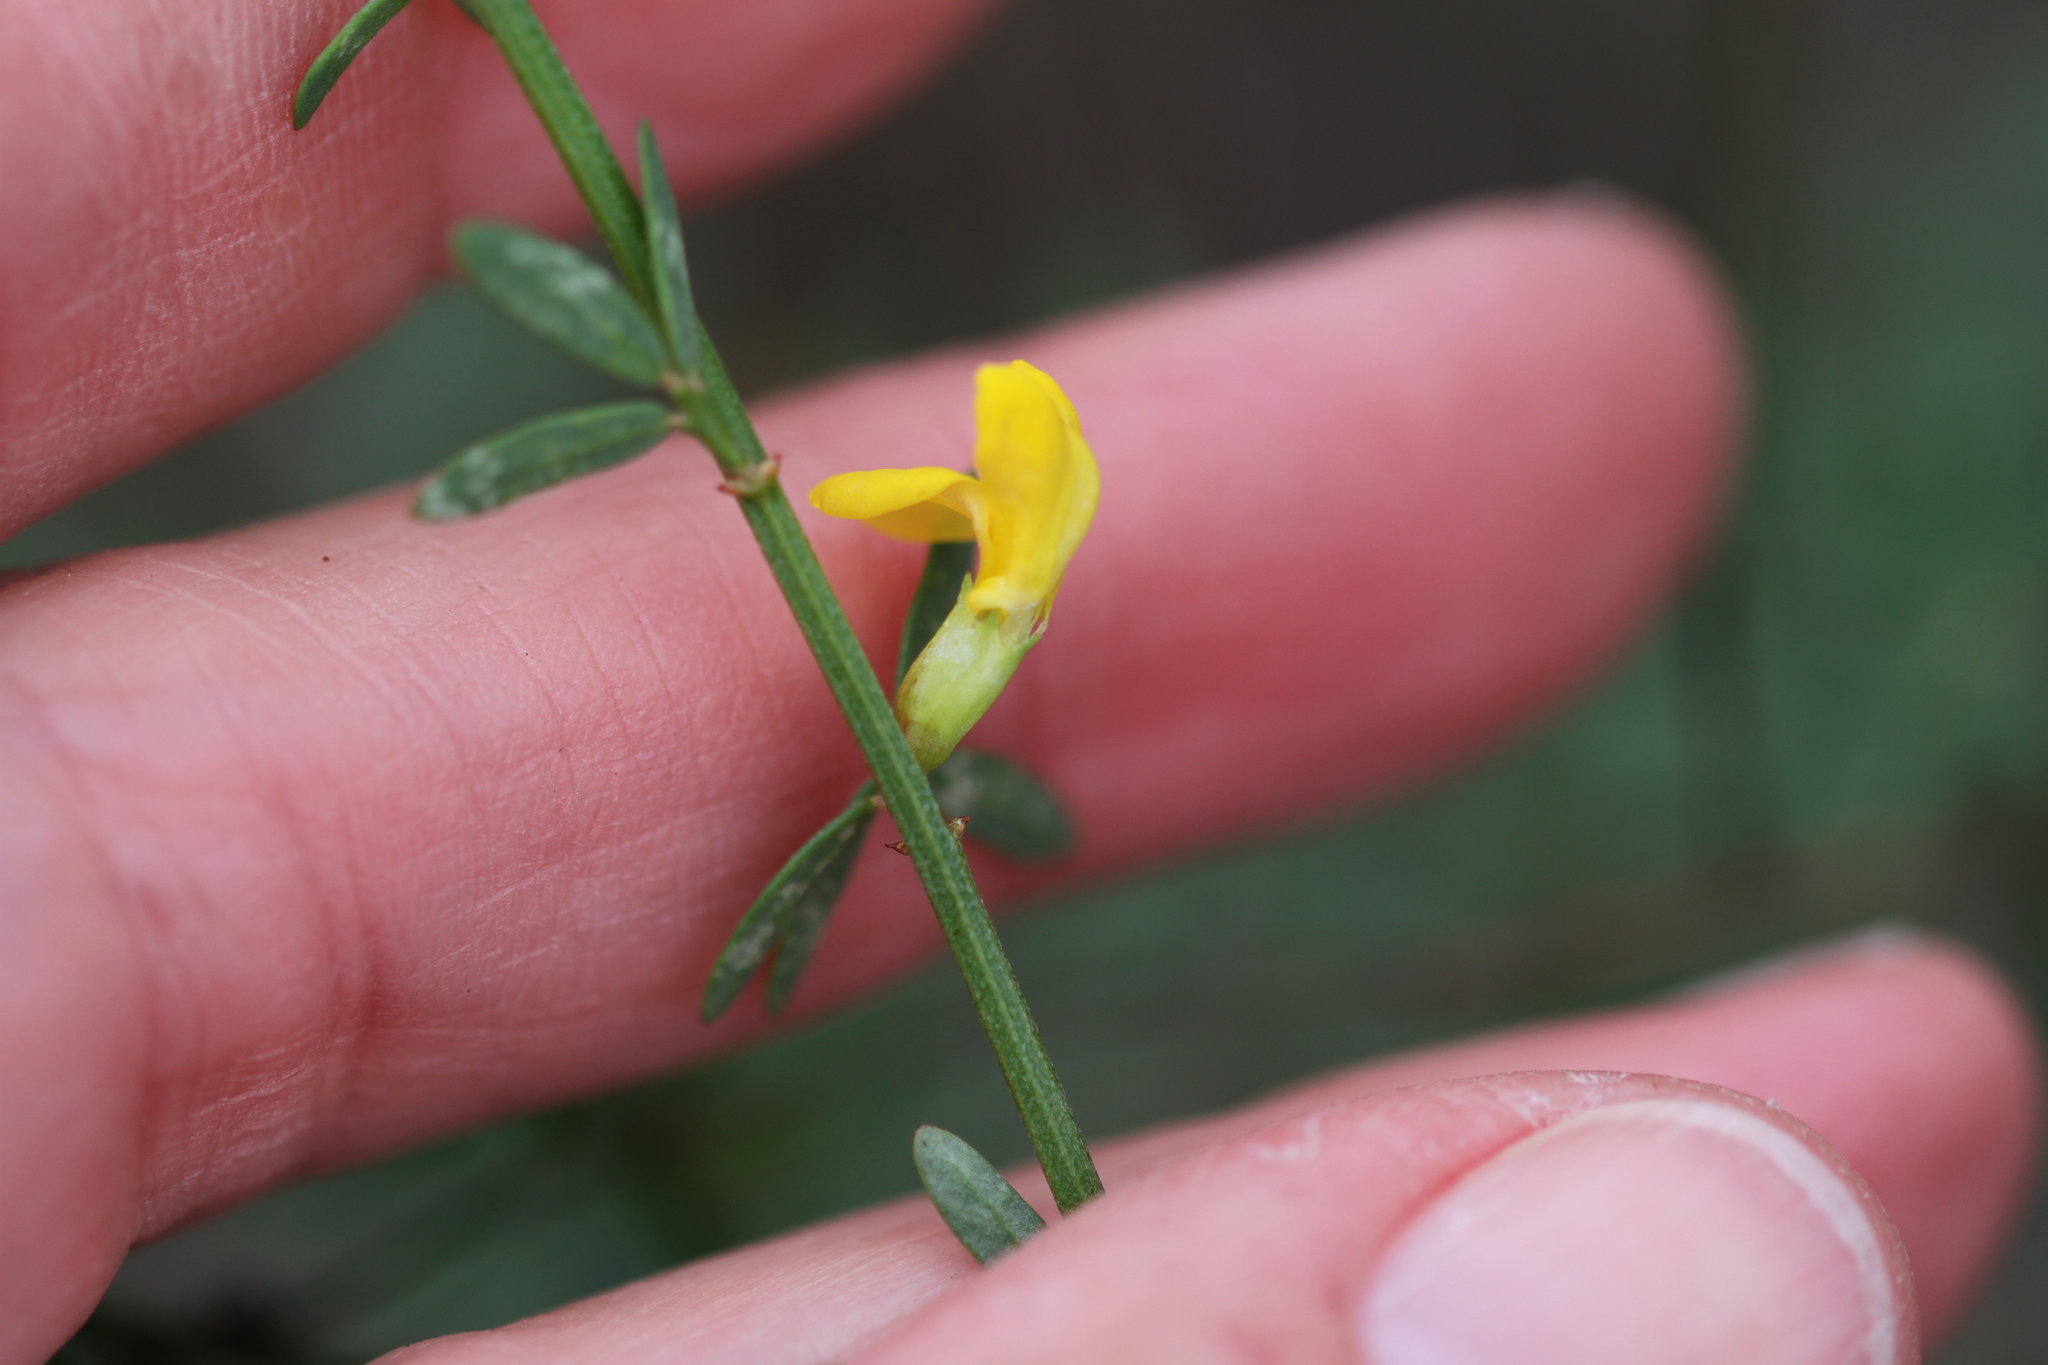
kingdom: Plantae
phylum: Tracheophyta
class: Magnoliopsida
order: Fabales
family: Fabaceae
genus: Acmispon
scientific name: Acmispon glaber
